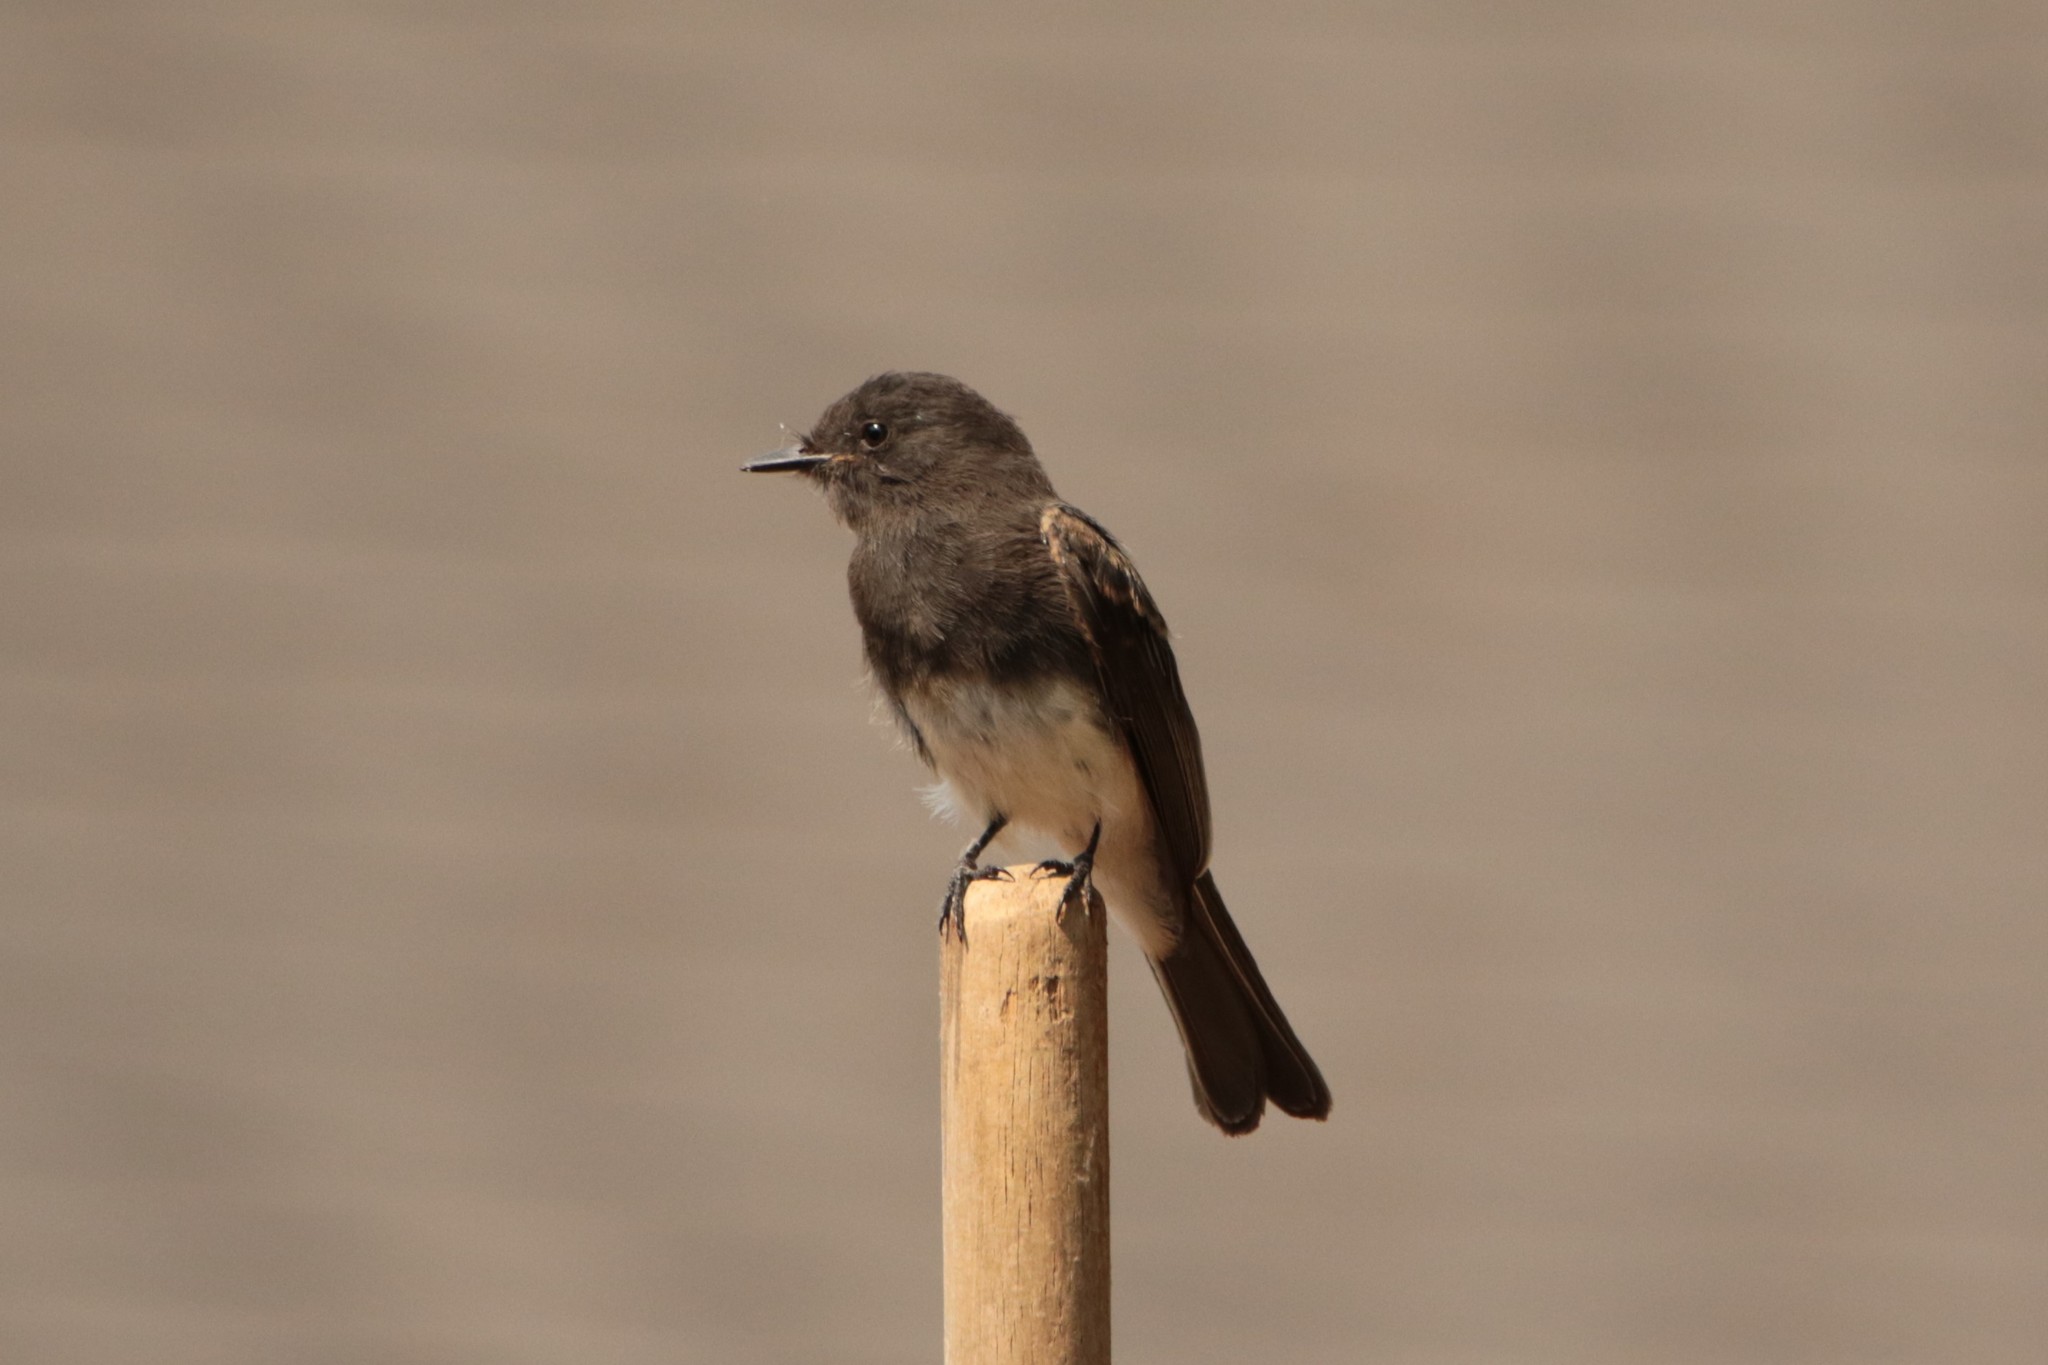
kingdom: Animalia
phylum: Chordata
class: Aves
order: Passeriformes
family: Tyrannidae
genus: Sayornis
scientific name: Sayornis nigricans
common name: Black phoebe
